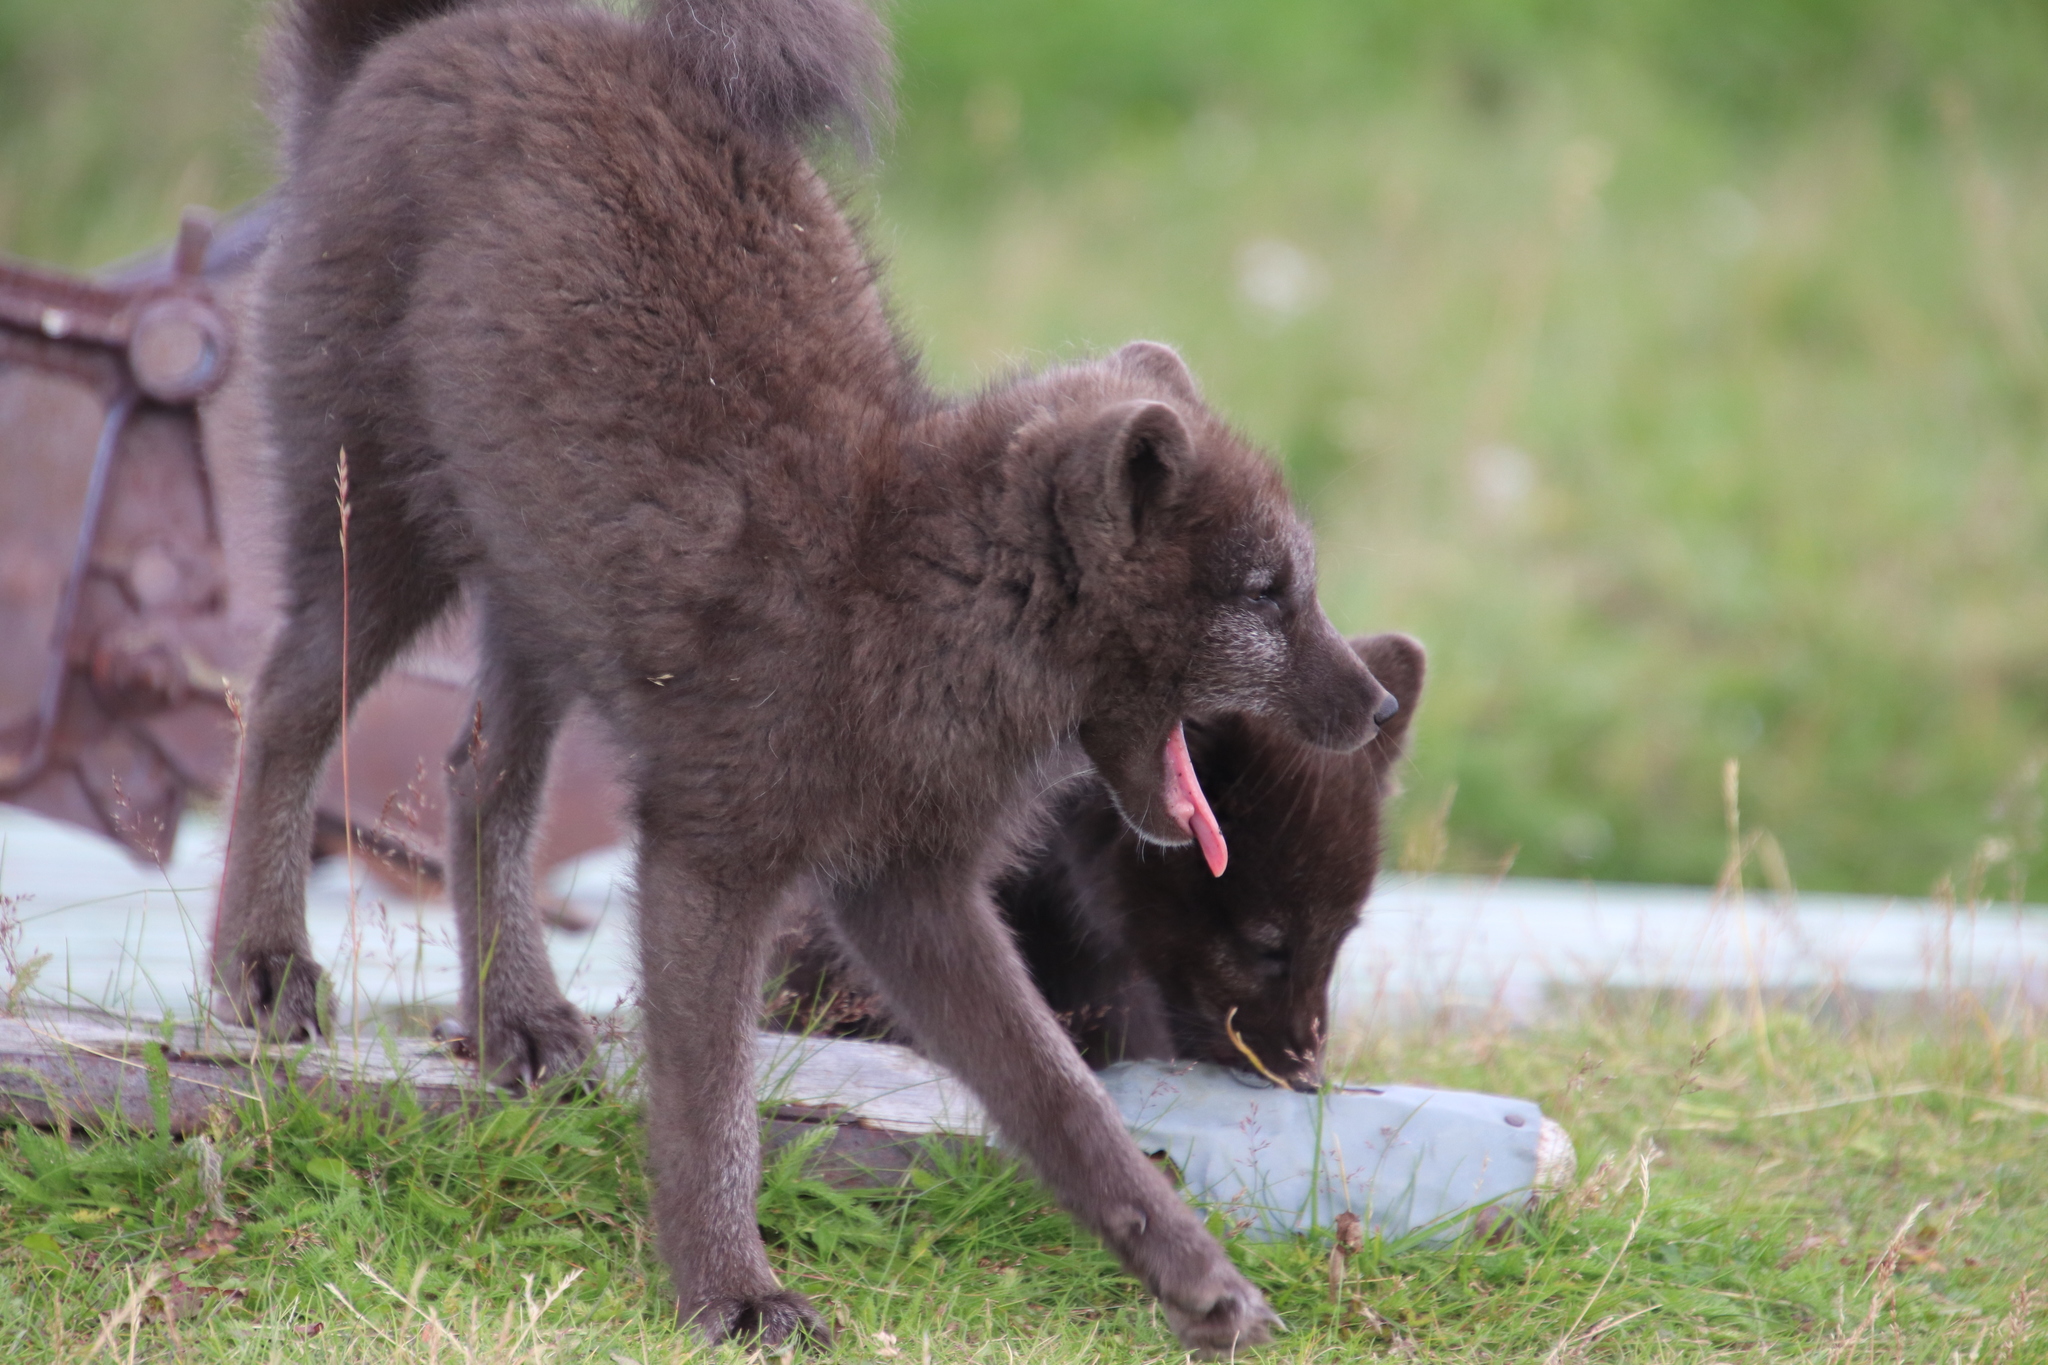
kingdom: Animalia
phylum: Chordata
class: Mammalia
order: Carnivora
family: Canidae
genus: Vulpes
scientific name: Vulpes lagopus
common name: Arctic fox
